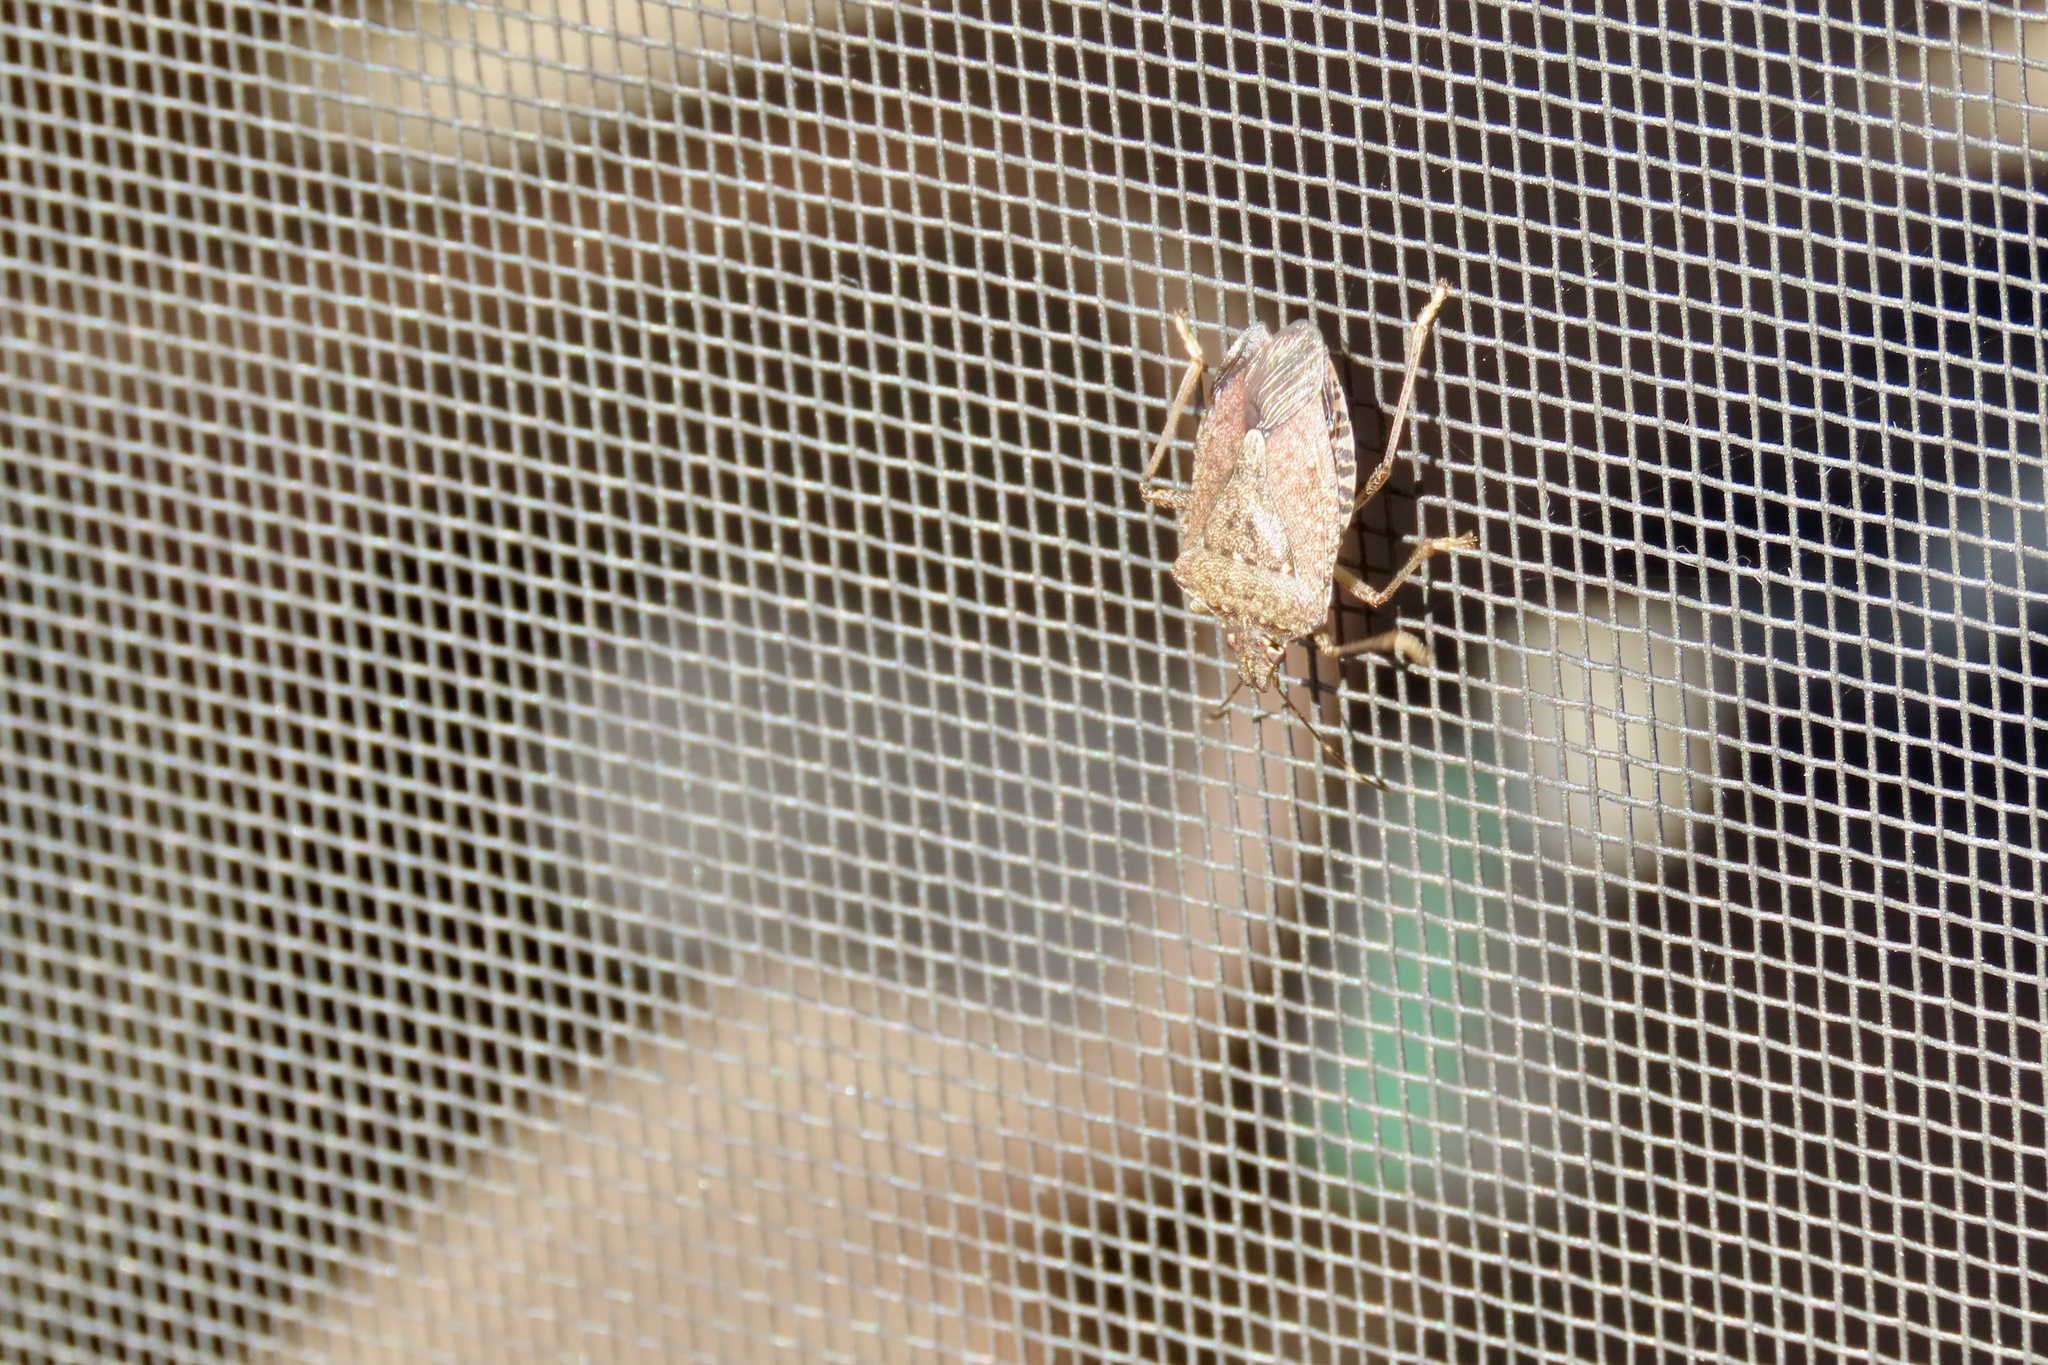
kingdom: Animalia
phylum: Arthropoda
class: Insecta
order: Hemiptera
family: Pentatomidae
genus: Halyomorpha
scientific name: Halyomorpha halys
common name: Brown marmorated stink bug
